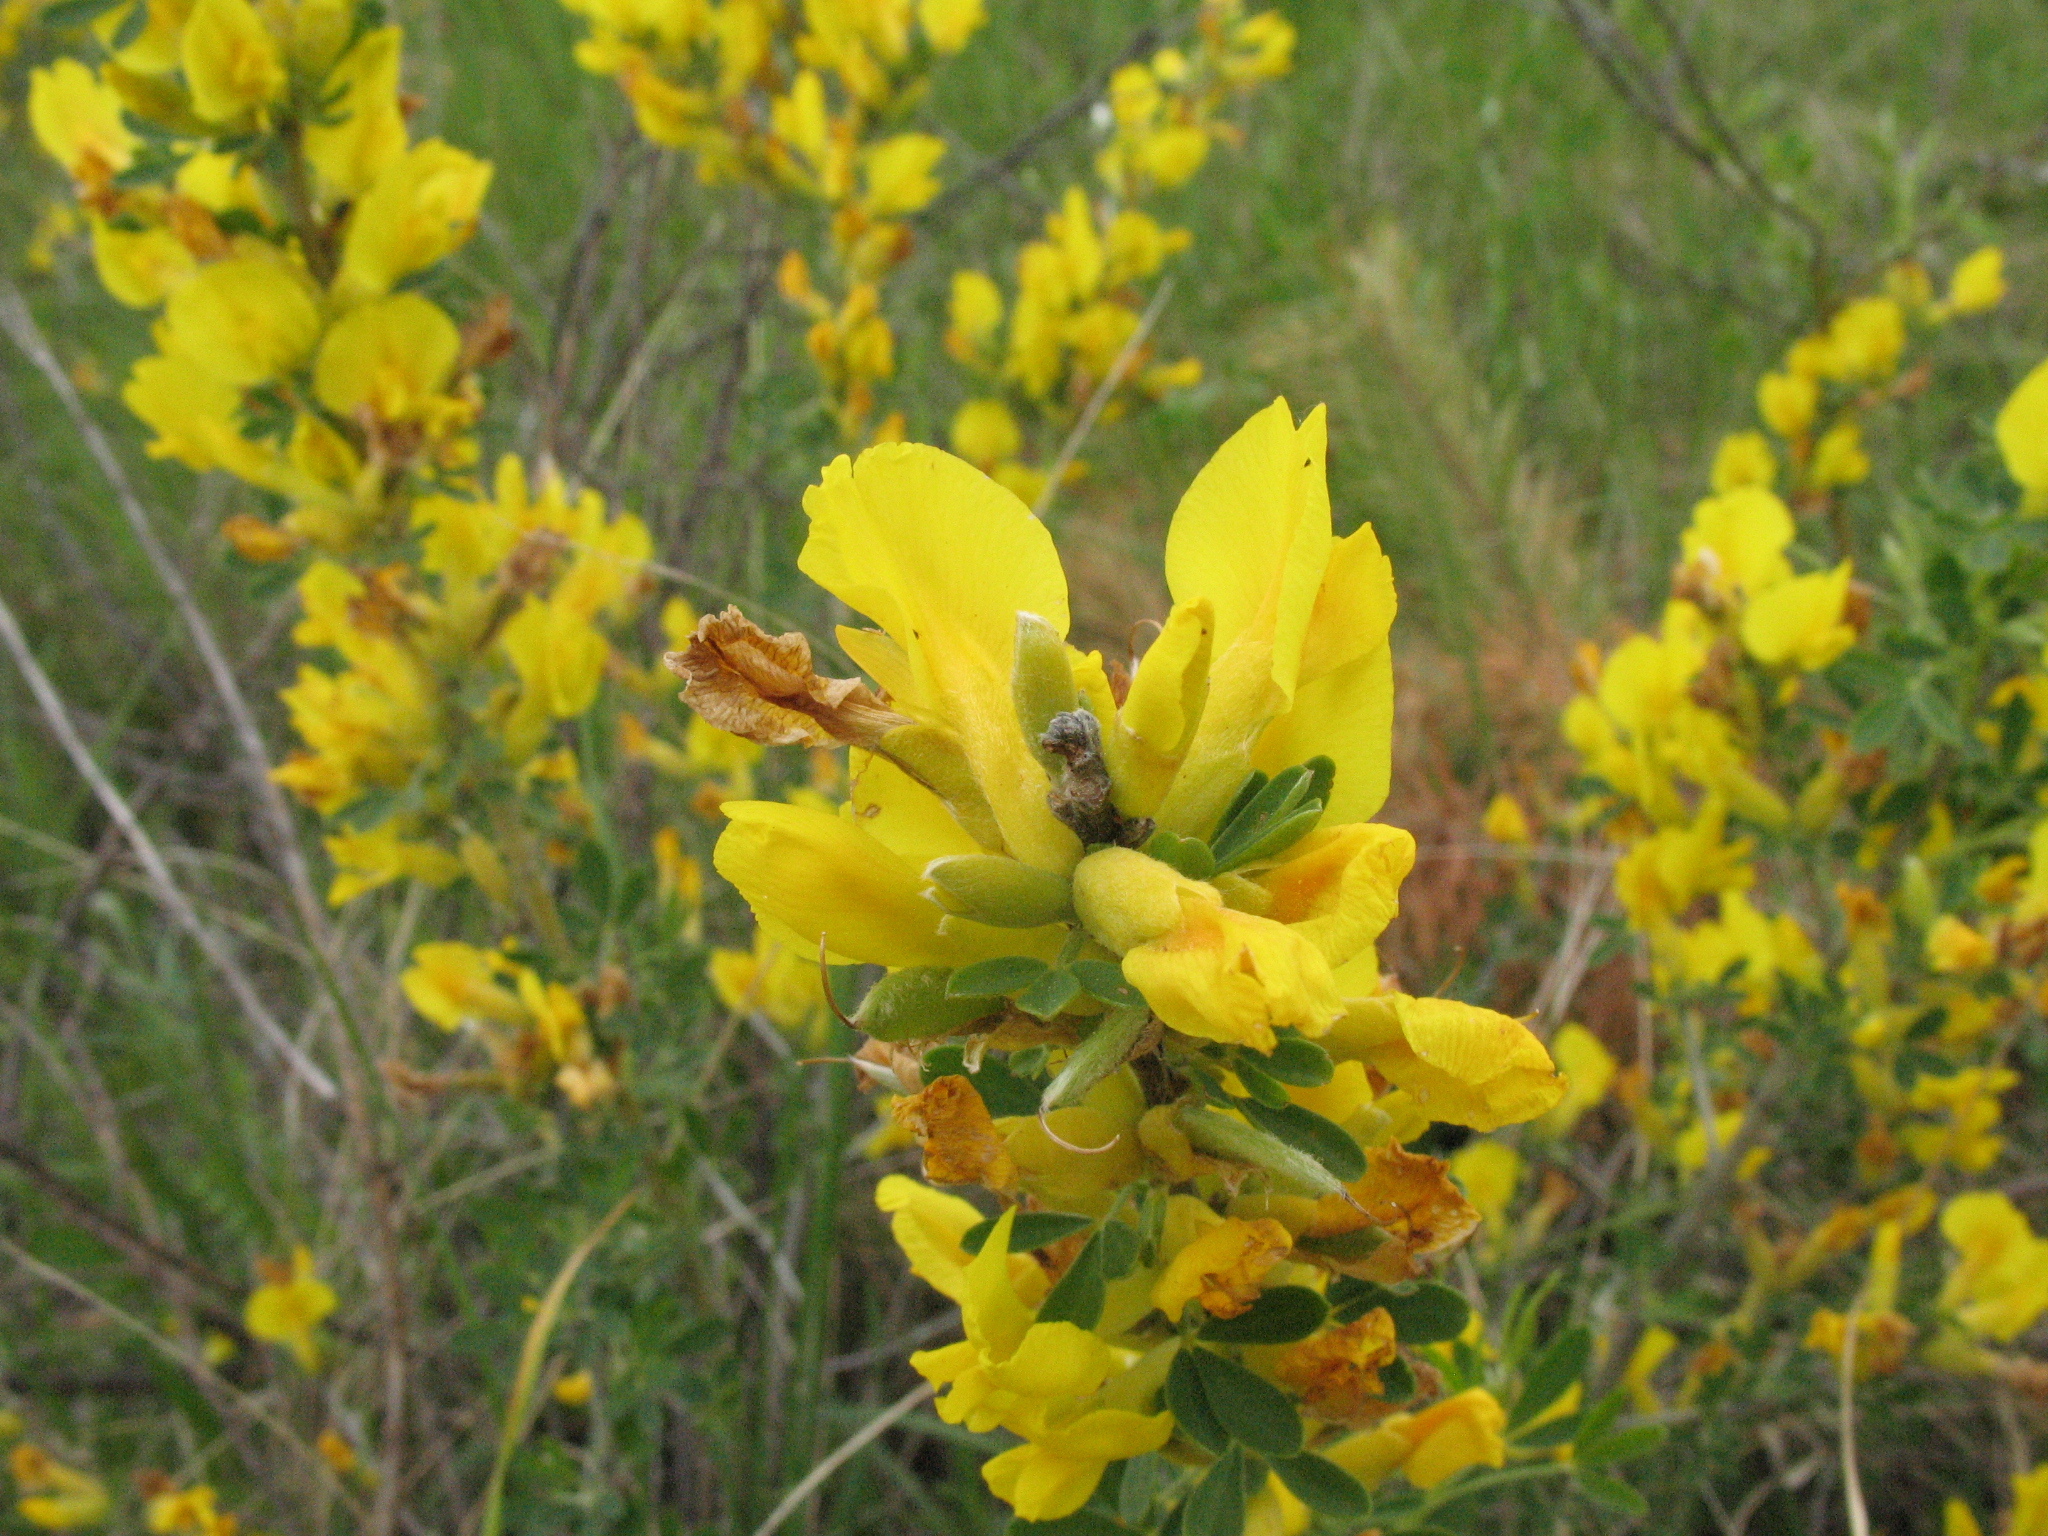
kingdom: Plantae
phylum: Tracheophyta
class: Magnoliopsida
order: Fabales
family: Fabaceae
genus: Chamaecytisus
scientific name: Chamaecytisus ruthenicus
